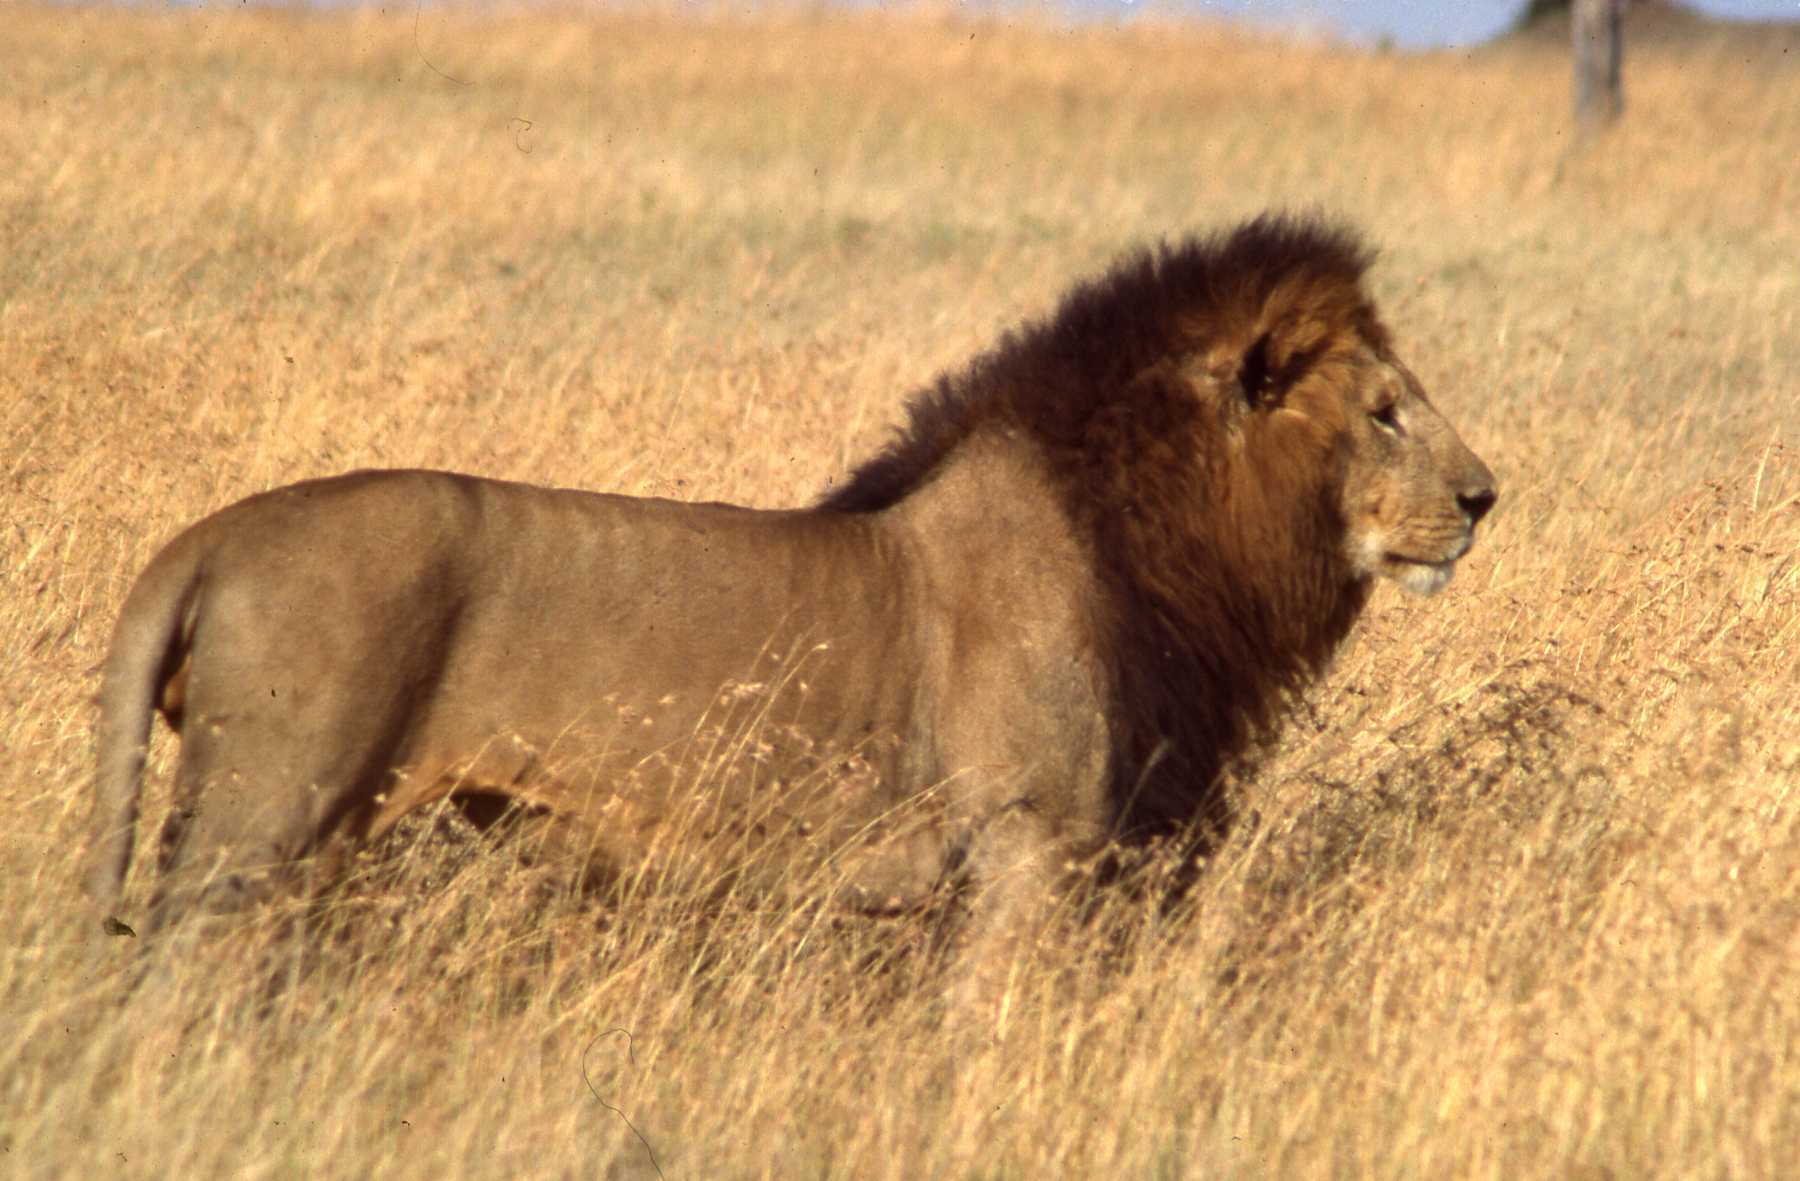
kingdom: Animalia
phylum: Chordata
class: Mammalia
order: Carnivora
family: Felidae
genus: Panthera
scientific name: Panthera leo
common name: Lion
